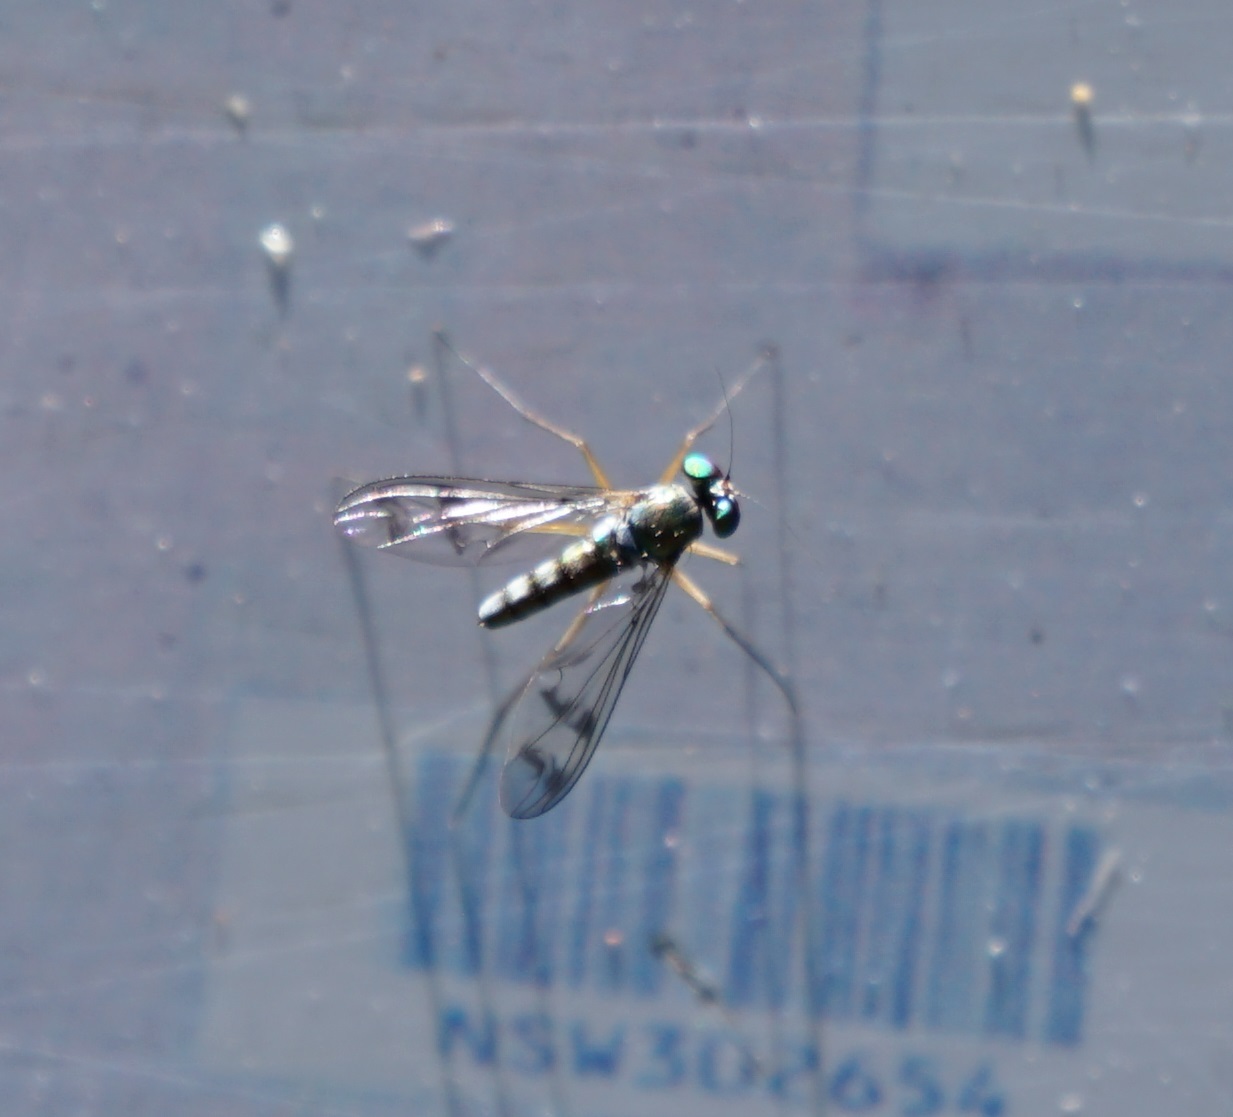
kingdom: Animalia
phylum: Arthropoda
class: Insecta
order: Diptera
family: Dolichopodidae
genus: Heteropsilopus
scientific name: Heteropsilopus squamifer
